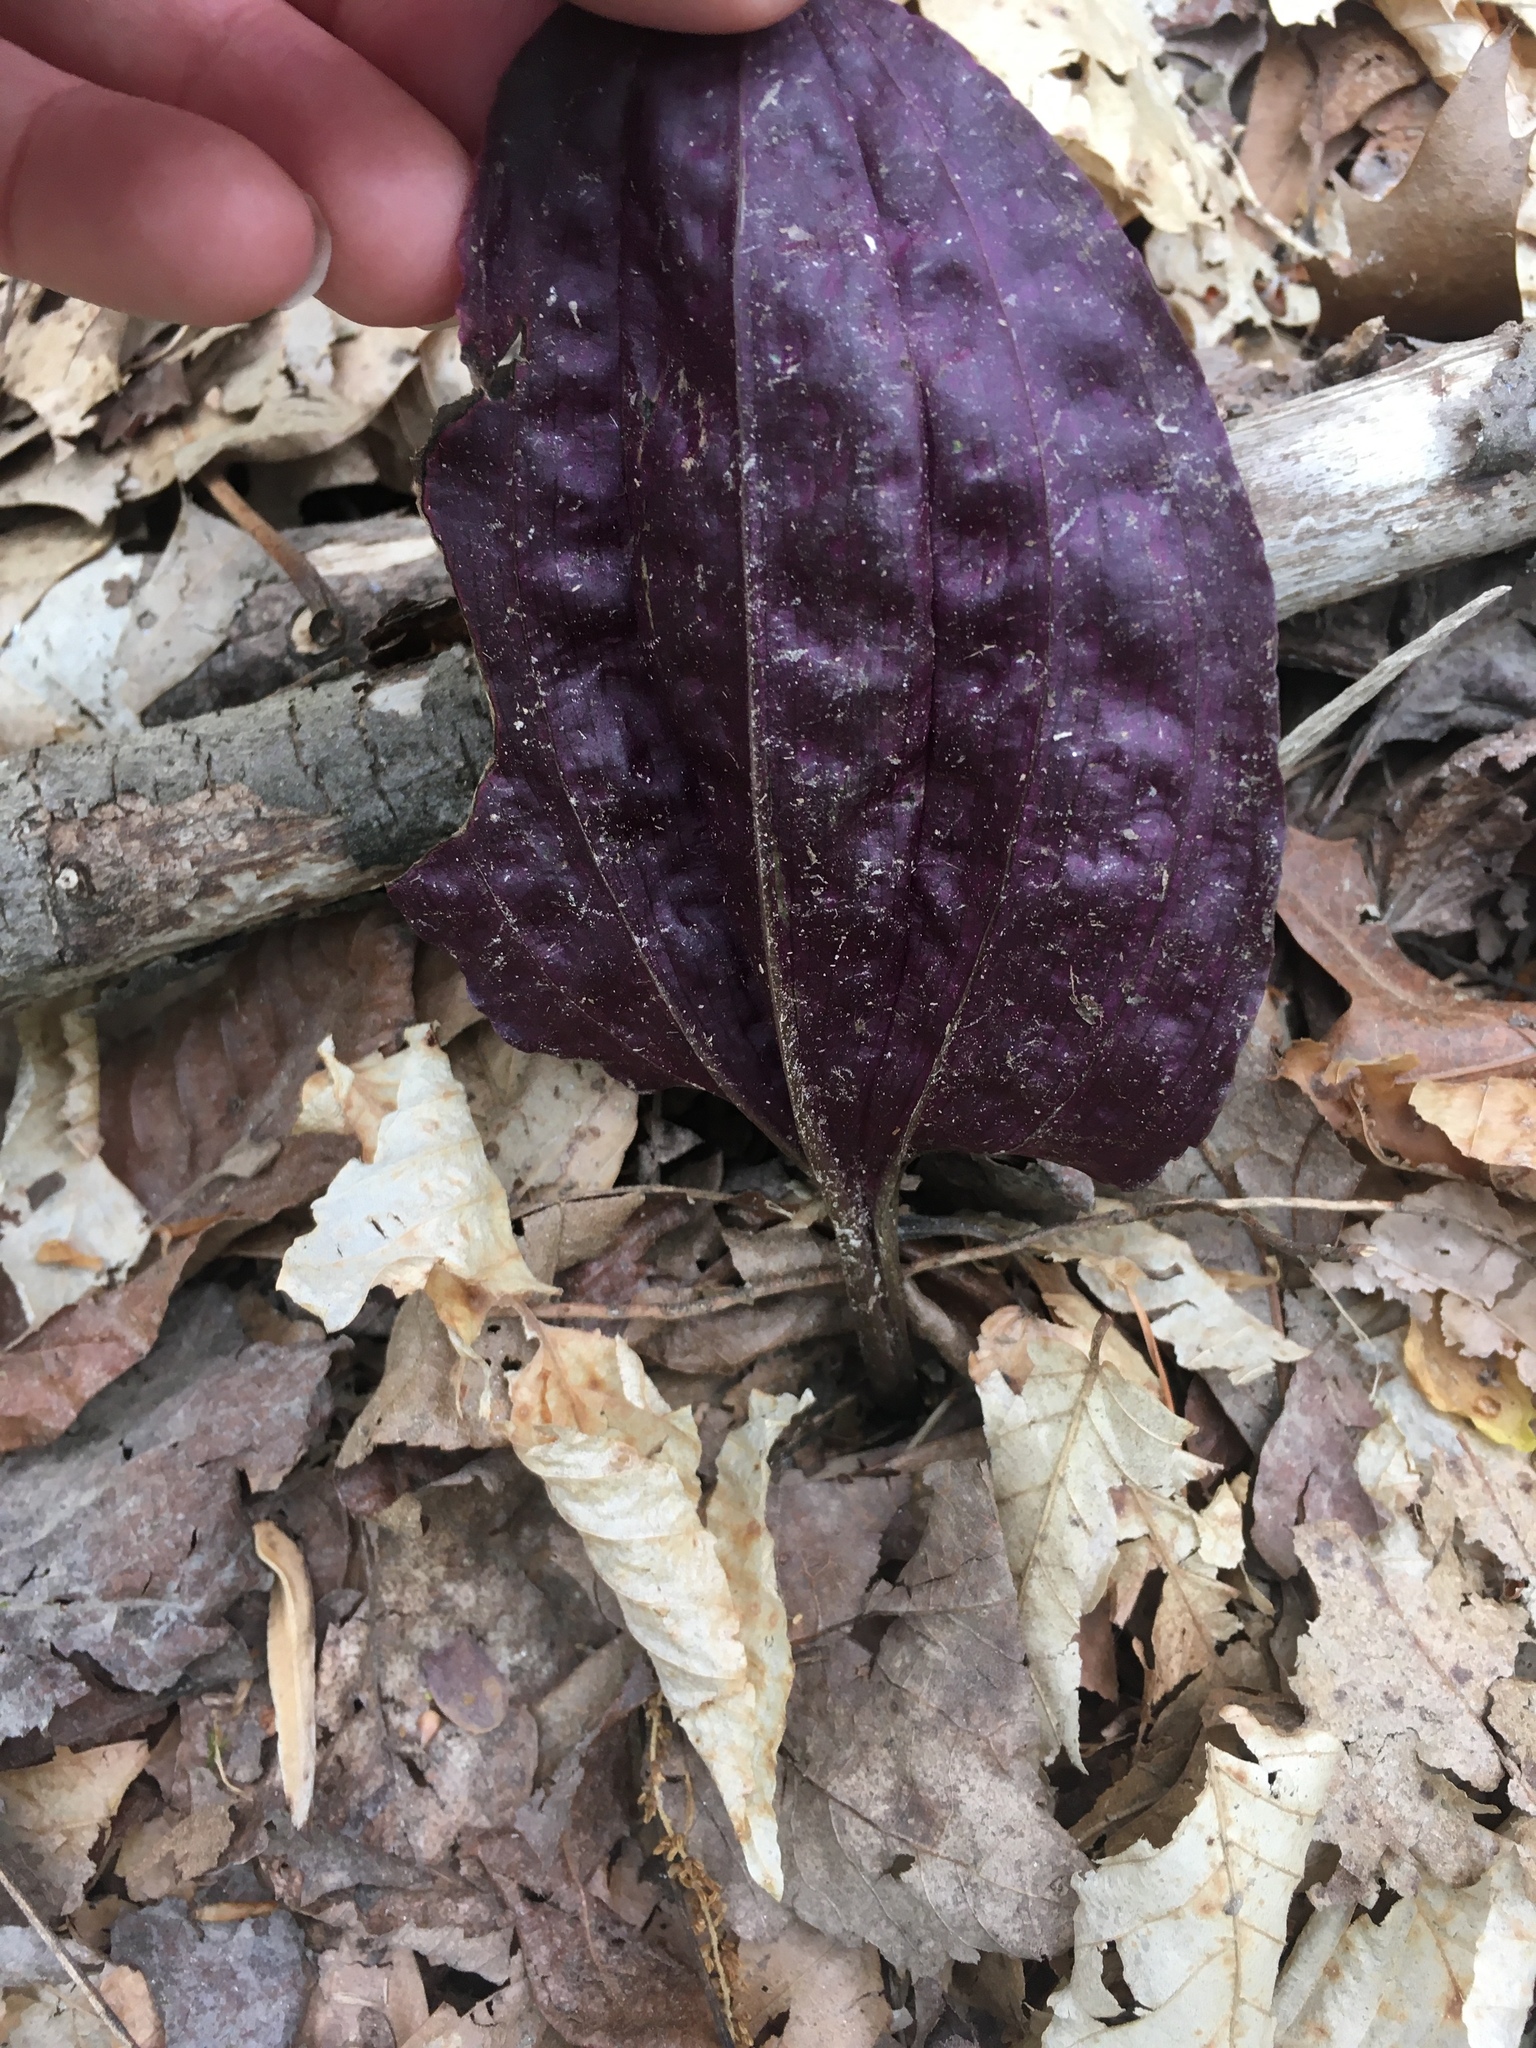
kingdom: Plantae
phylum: Tracheophyta
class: Liliopsida
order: Asparagales
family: Orchidaceae
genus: Tipularia
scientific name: Tipularia discolor
